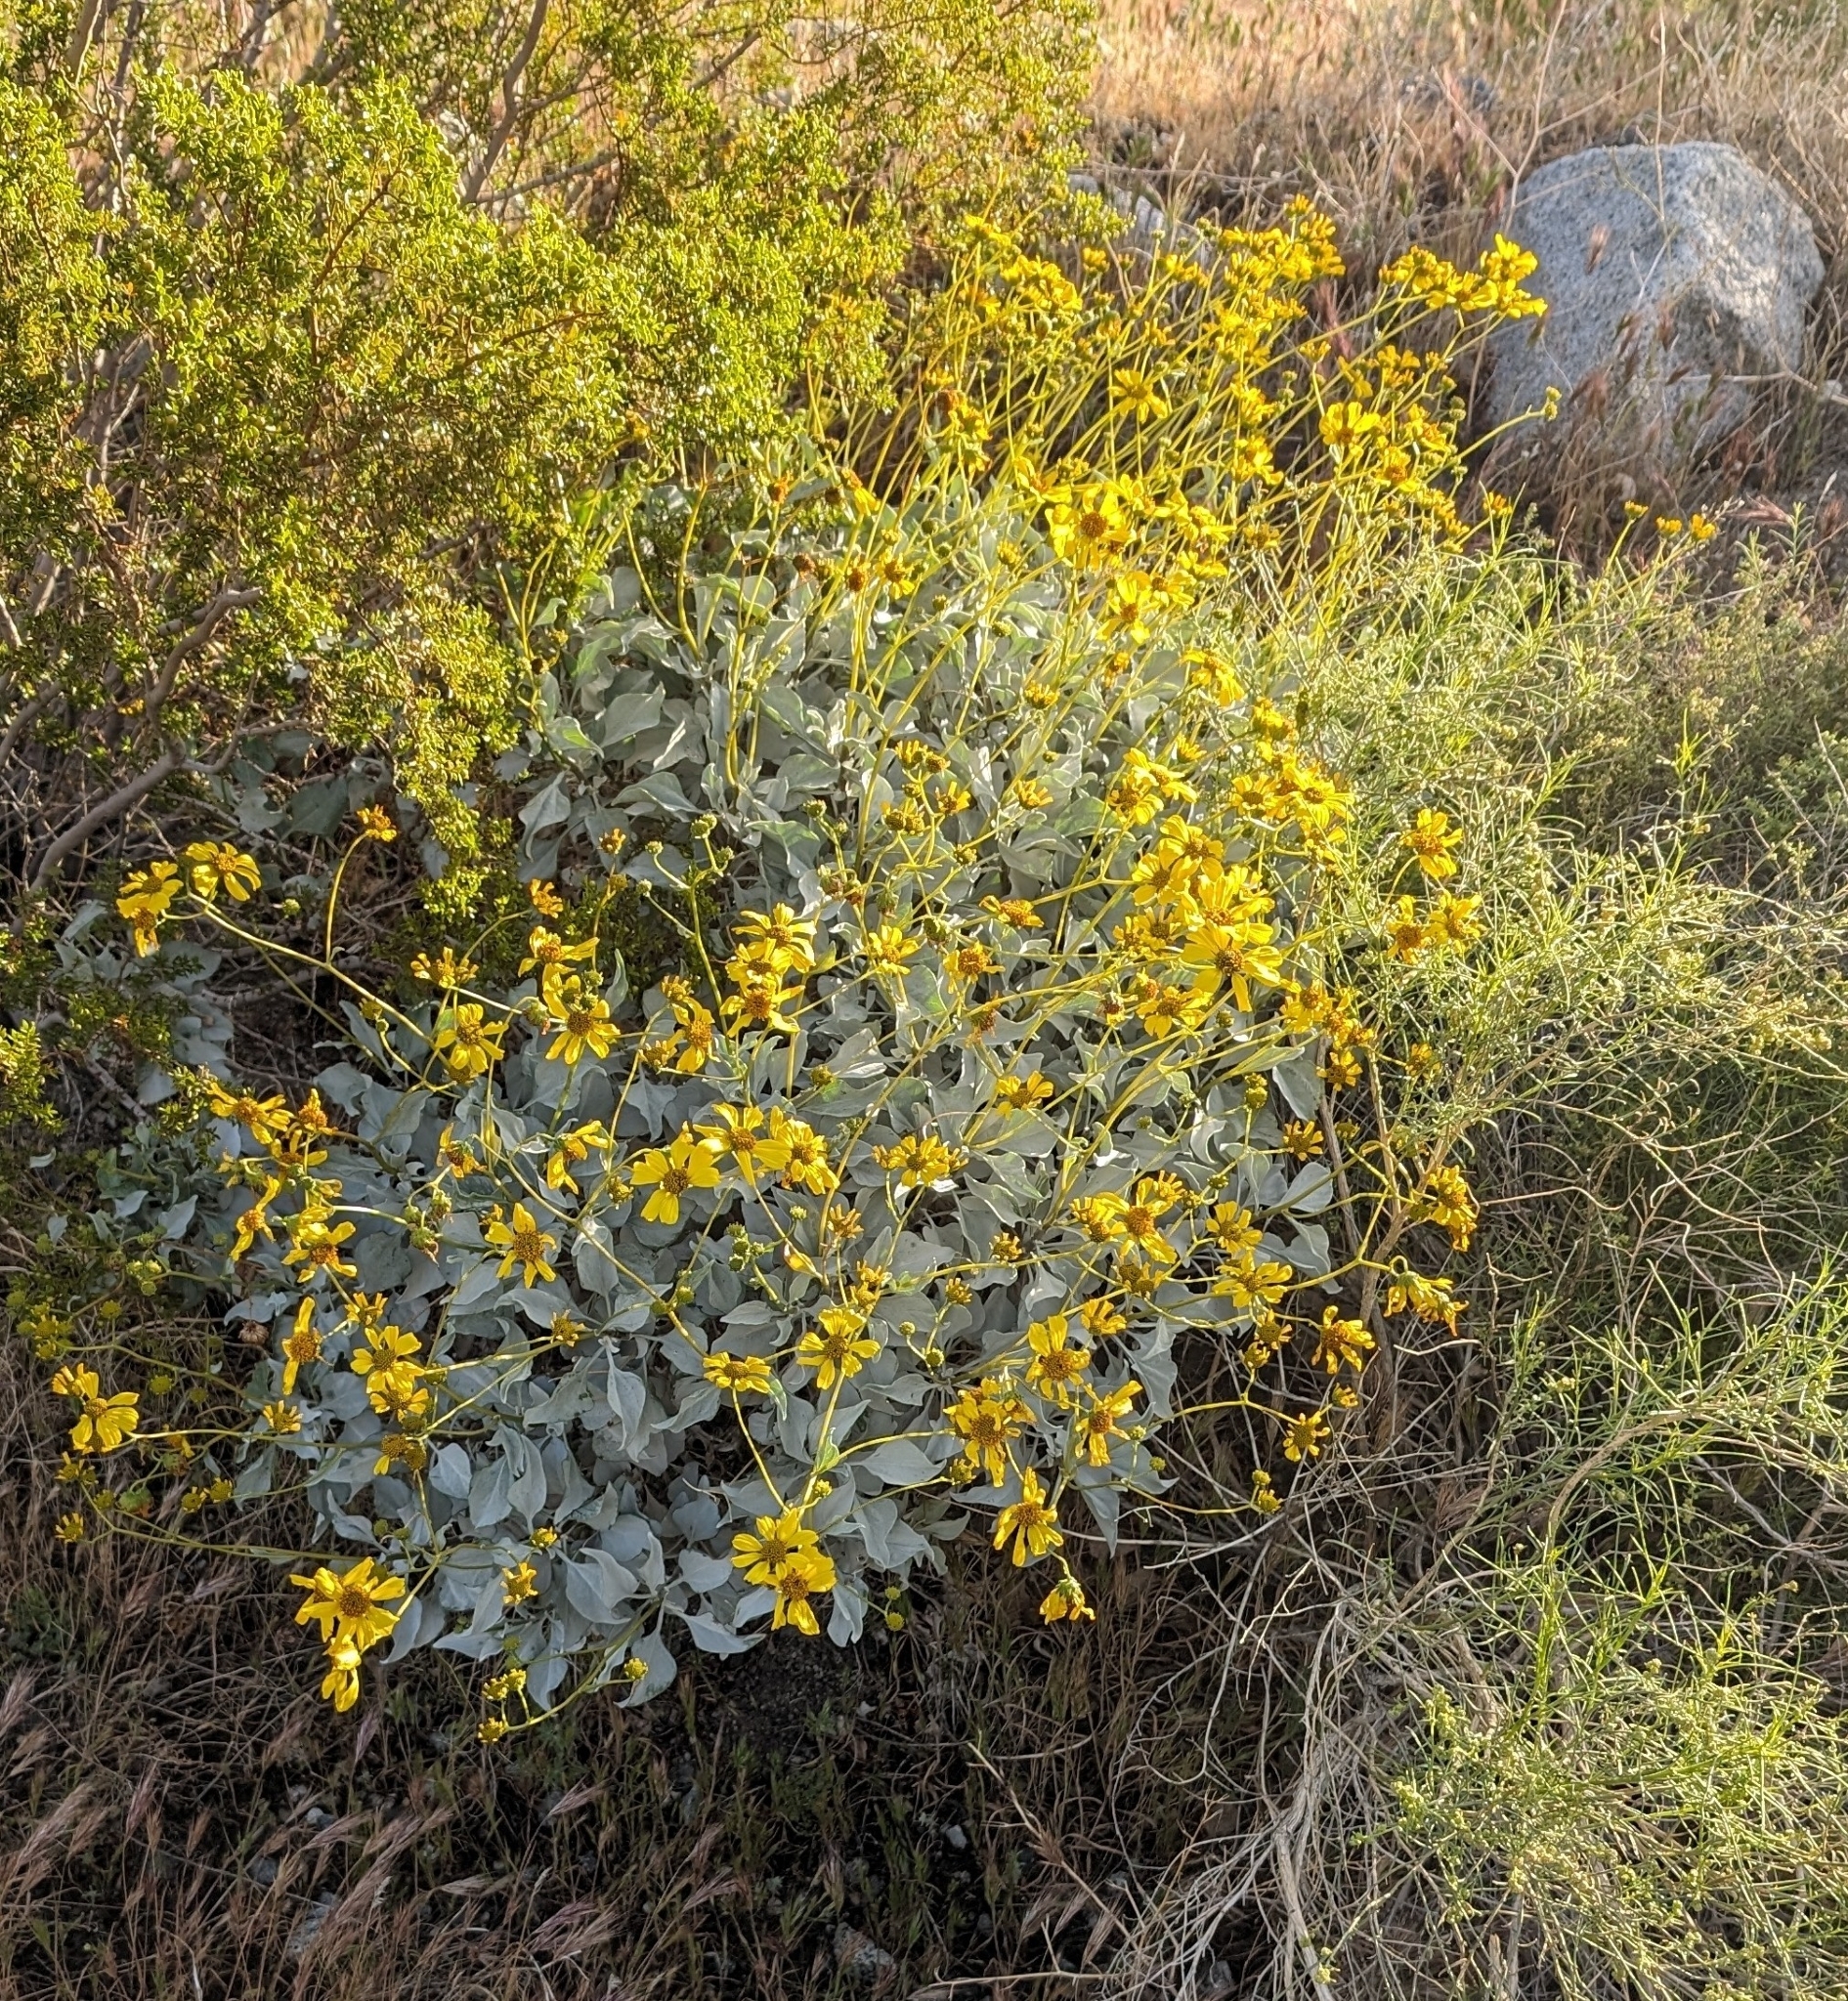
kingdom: Plantae
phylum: Tracheophyta
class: Magnoliopsida
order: Asterales
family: Asteraceae
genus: Encelia
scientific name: Encelia farinosa
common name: Brittlebush
